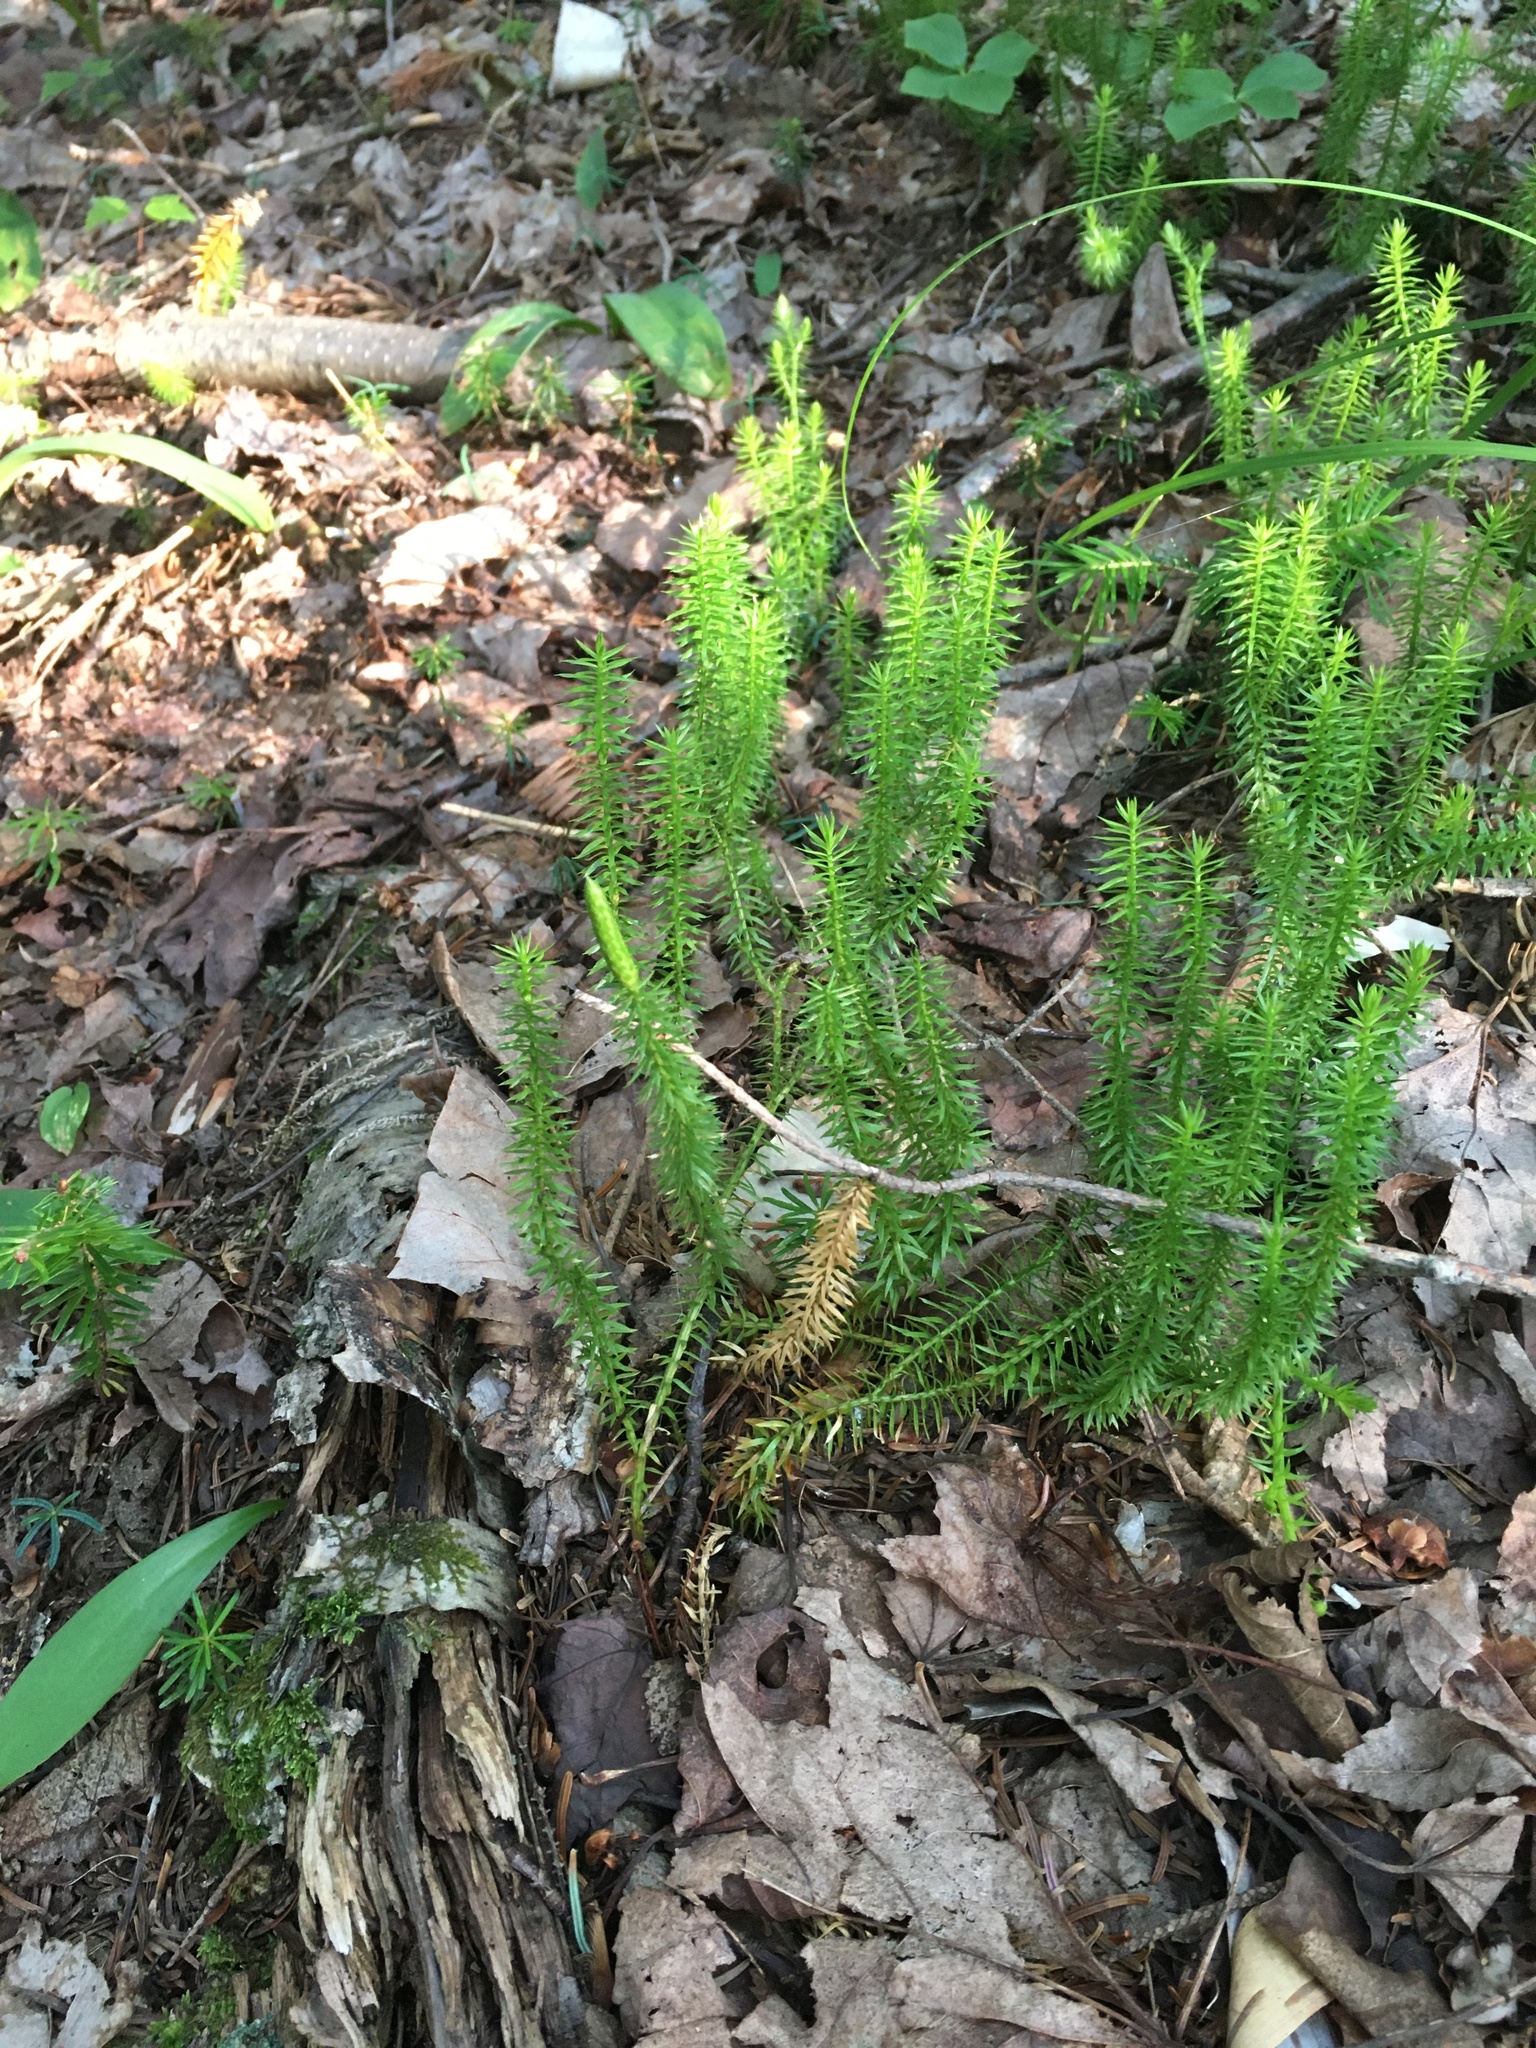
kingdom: Plantae
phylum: Tracheophyta
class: Lycopodiopsida
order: Lycopodiales
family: Lycopodiaceae
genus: Spinulum
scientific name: Spinulum annotinum
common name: Interrupted club-moss
